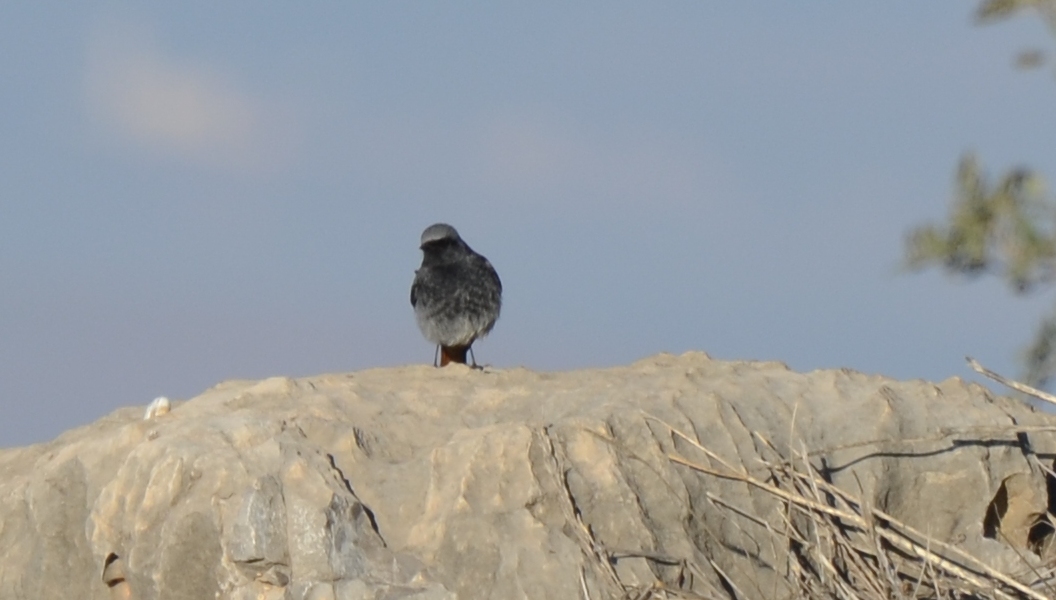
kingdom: Animalia
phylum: Chordata
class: Aves
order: Passeriformes
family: Muscicapidae
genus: Phoenicurus
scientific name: Phoenicurus ochruros
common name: Black redstart
